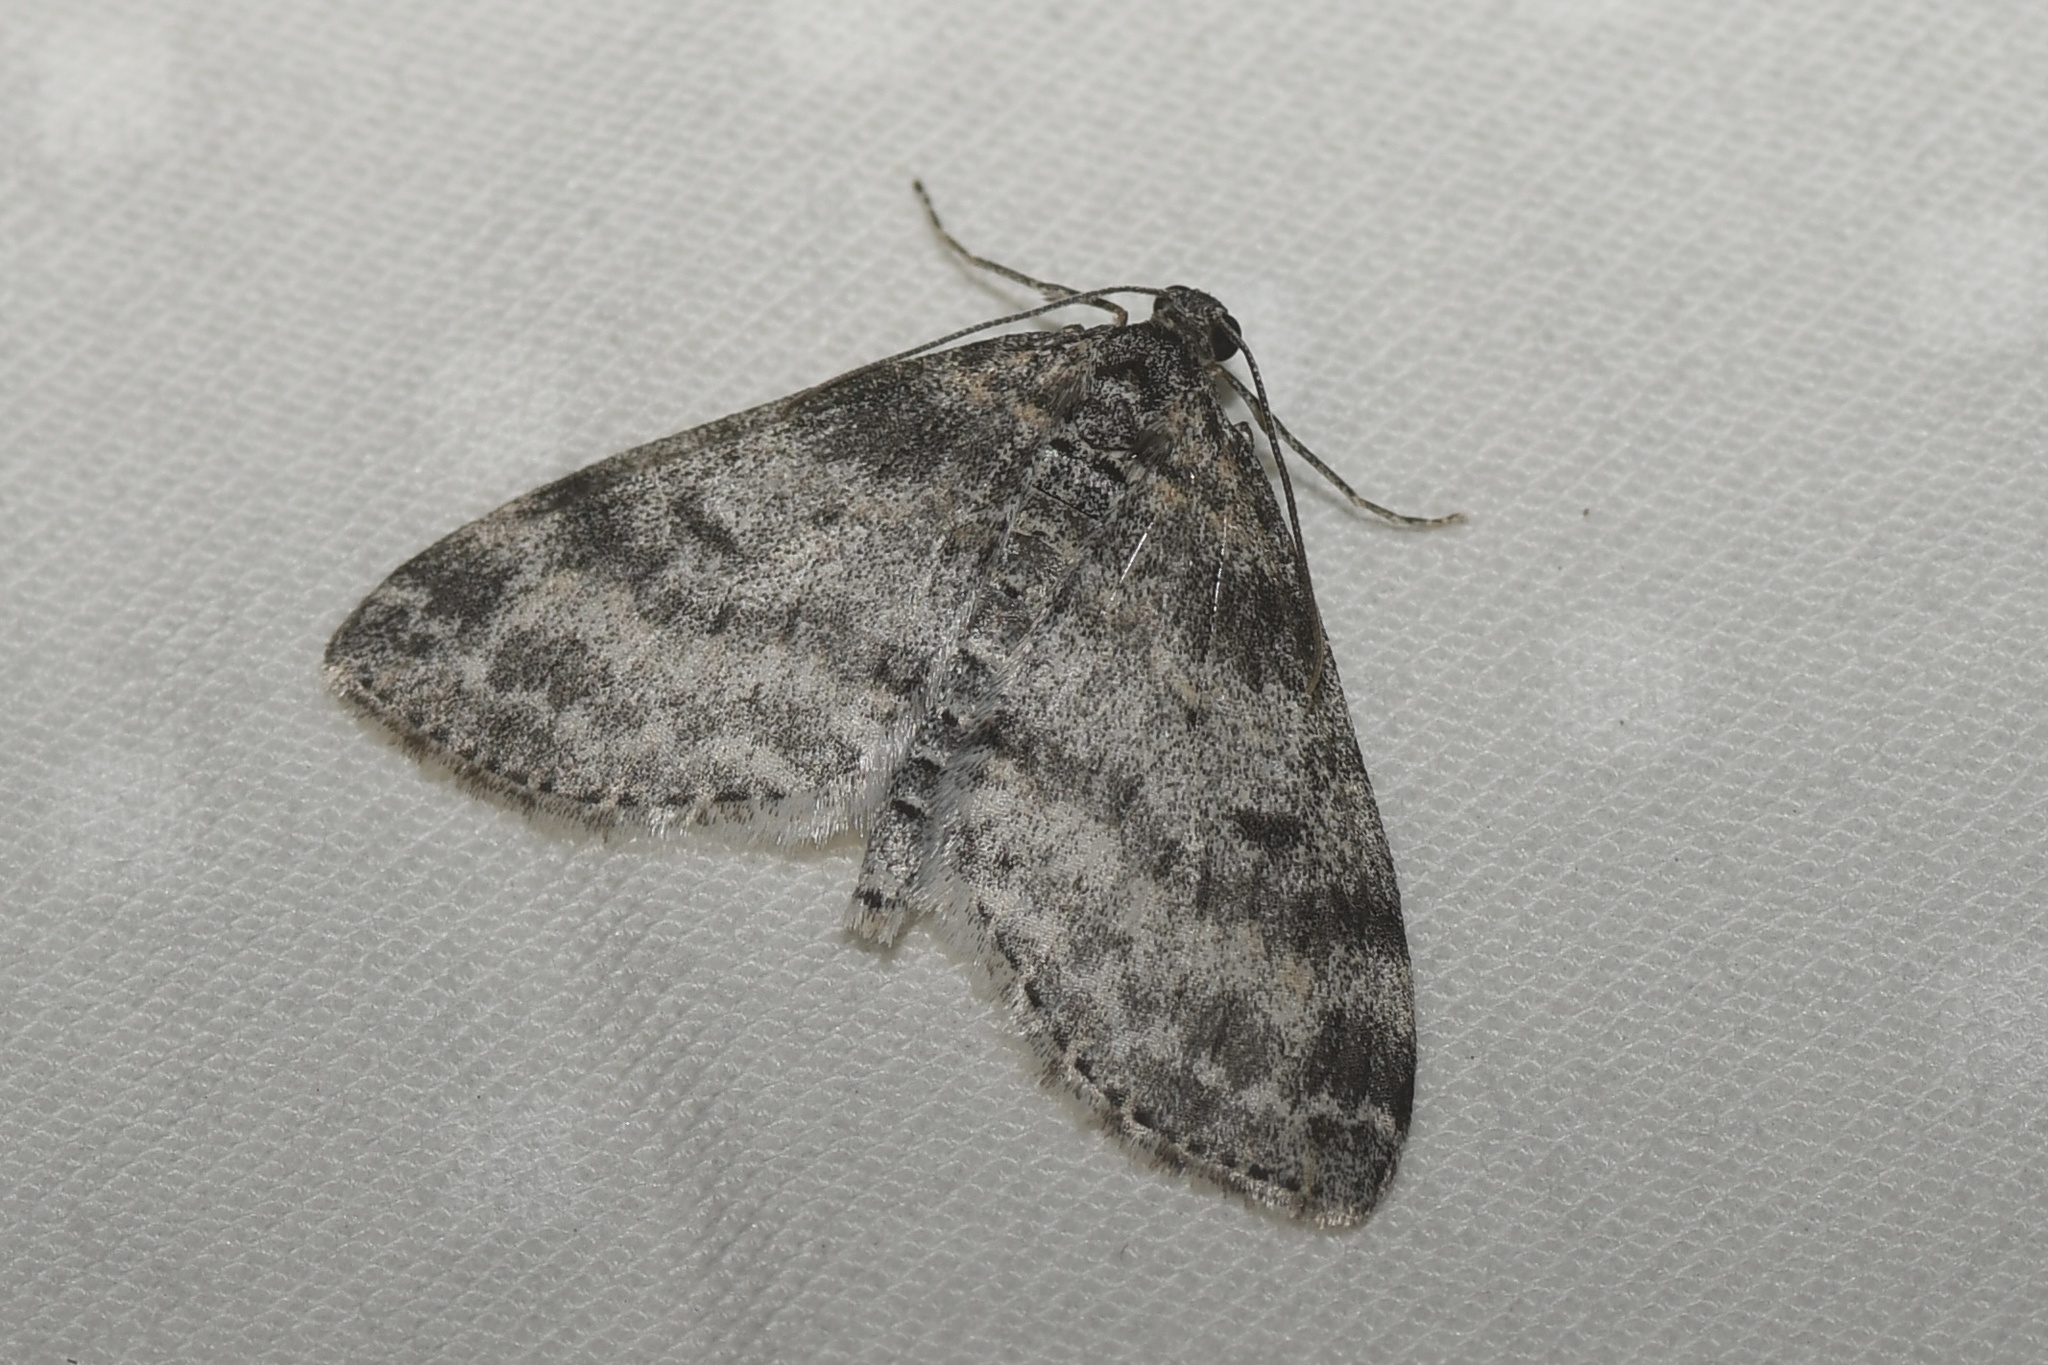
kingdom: Animalia
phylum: Arthropoda
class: Insecta
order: Lepidoptera
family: Geometridae
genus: Lobophora
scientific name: Lobophora nivigerata
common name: Powdered bigwing
